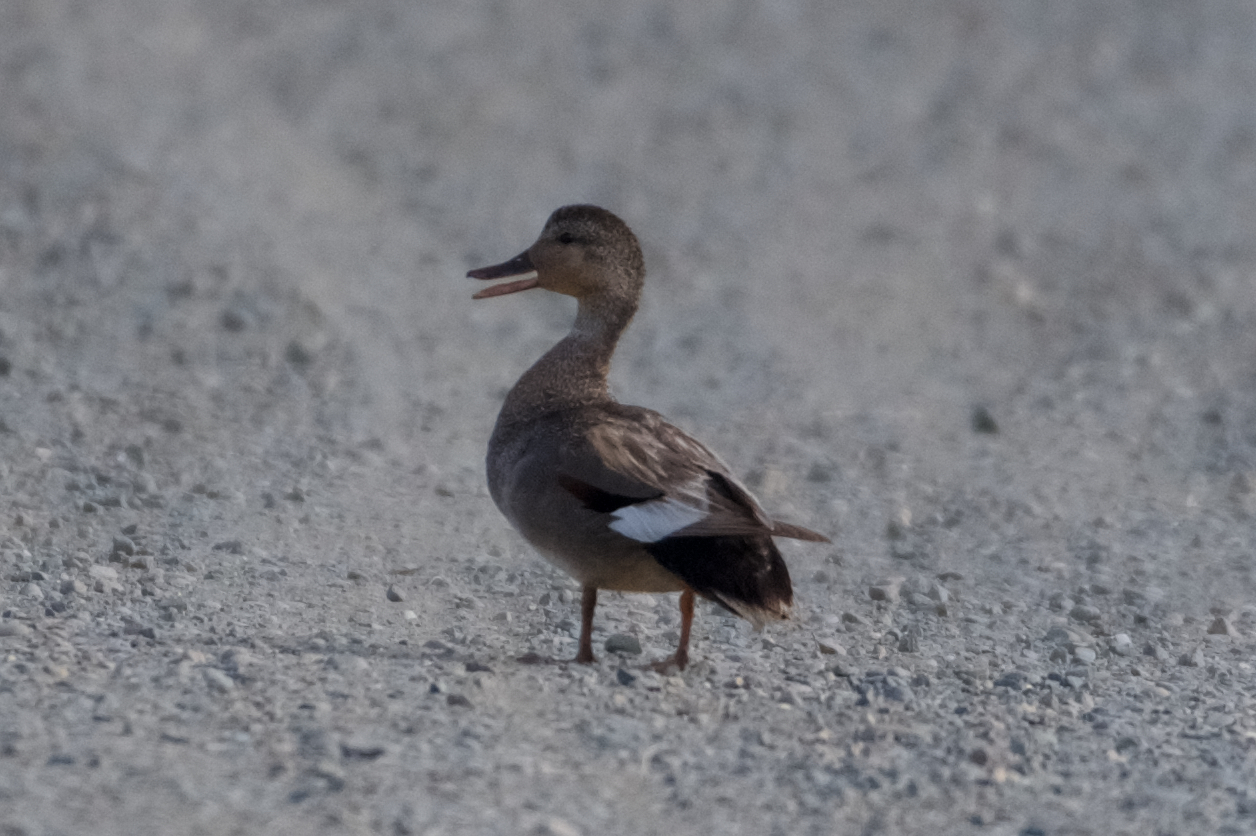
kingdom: Animalia
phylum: Chordata
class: Aves
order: Anseriformes
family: Anatidae
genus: Mareca
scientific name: Mareca strepera
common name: Gadwall
